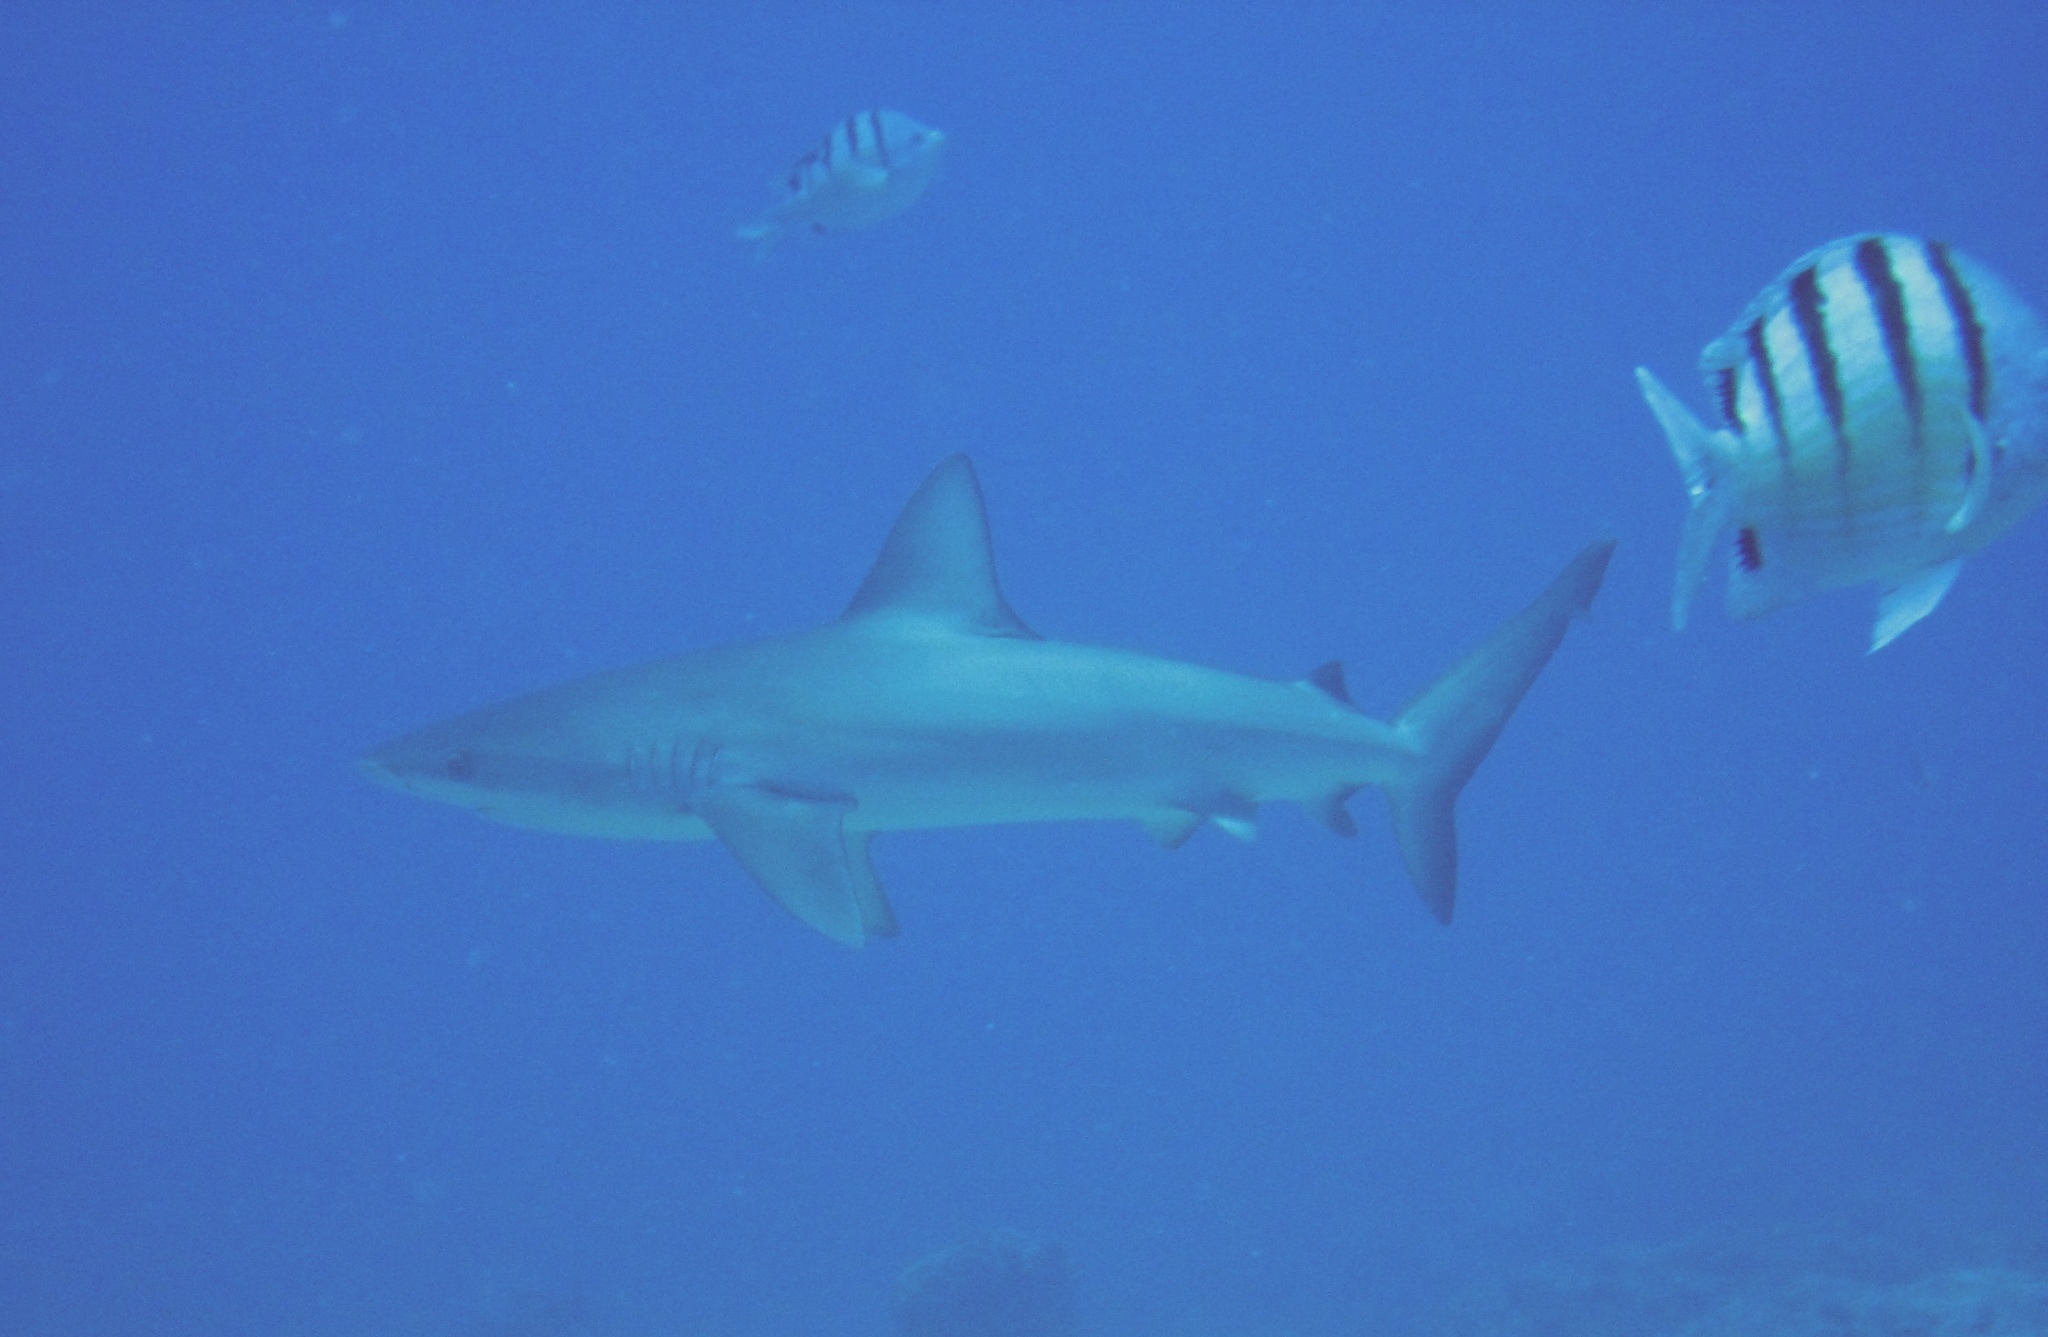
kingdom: Animalia
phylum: Chordata
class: Elasmobranchii
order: Carcharhiniformes
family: Carcharhinidae
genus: Carcharhinus
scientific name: Carcharhinus galapagensis
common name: Galapagos shark
